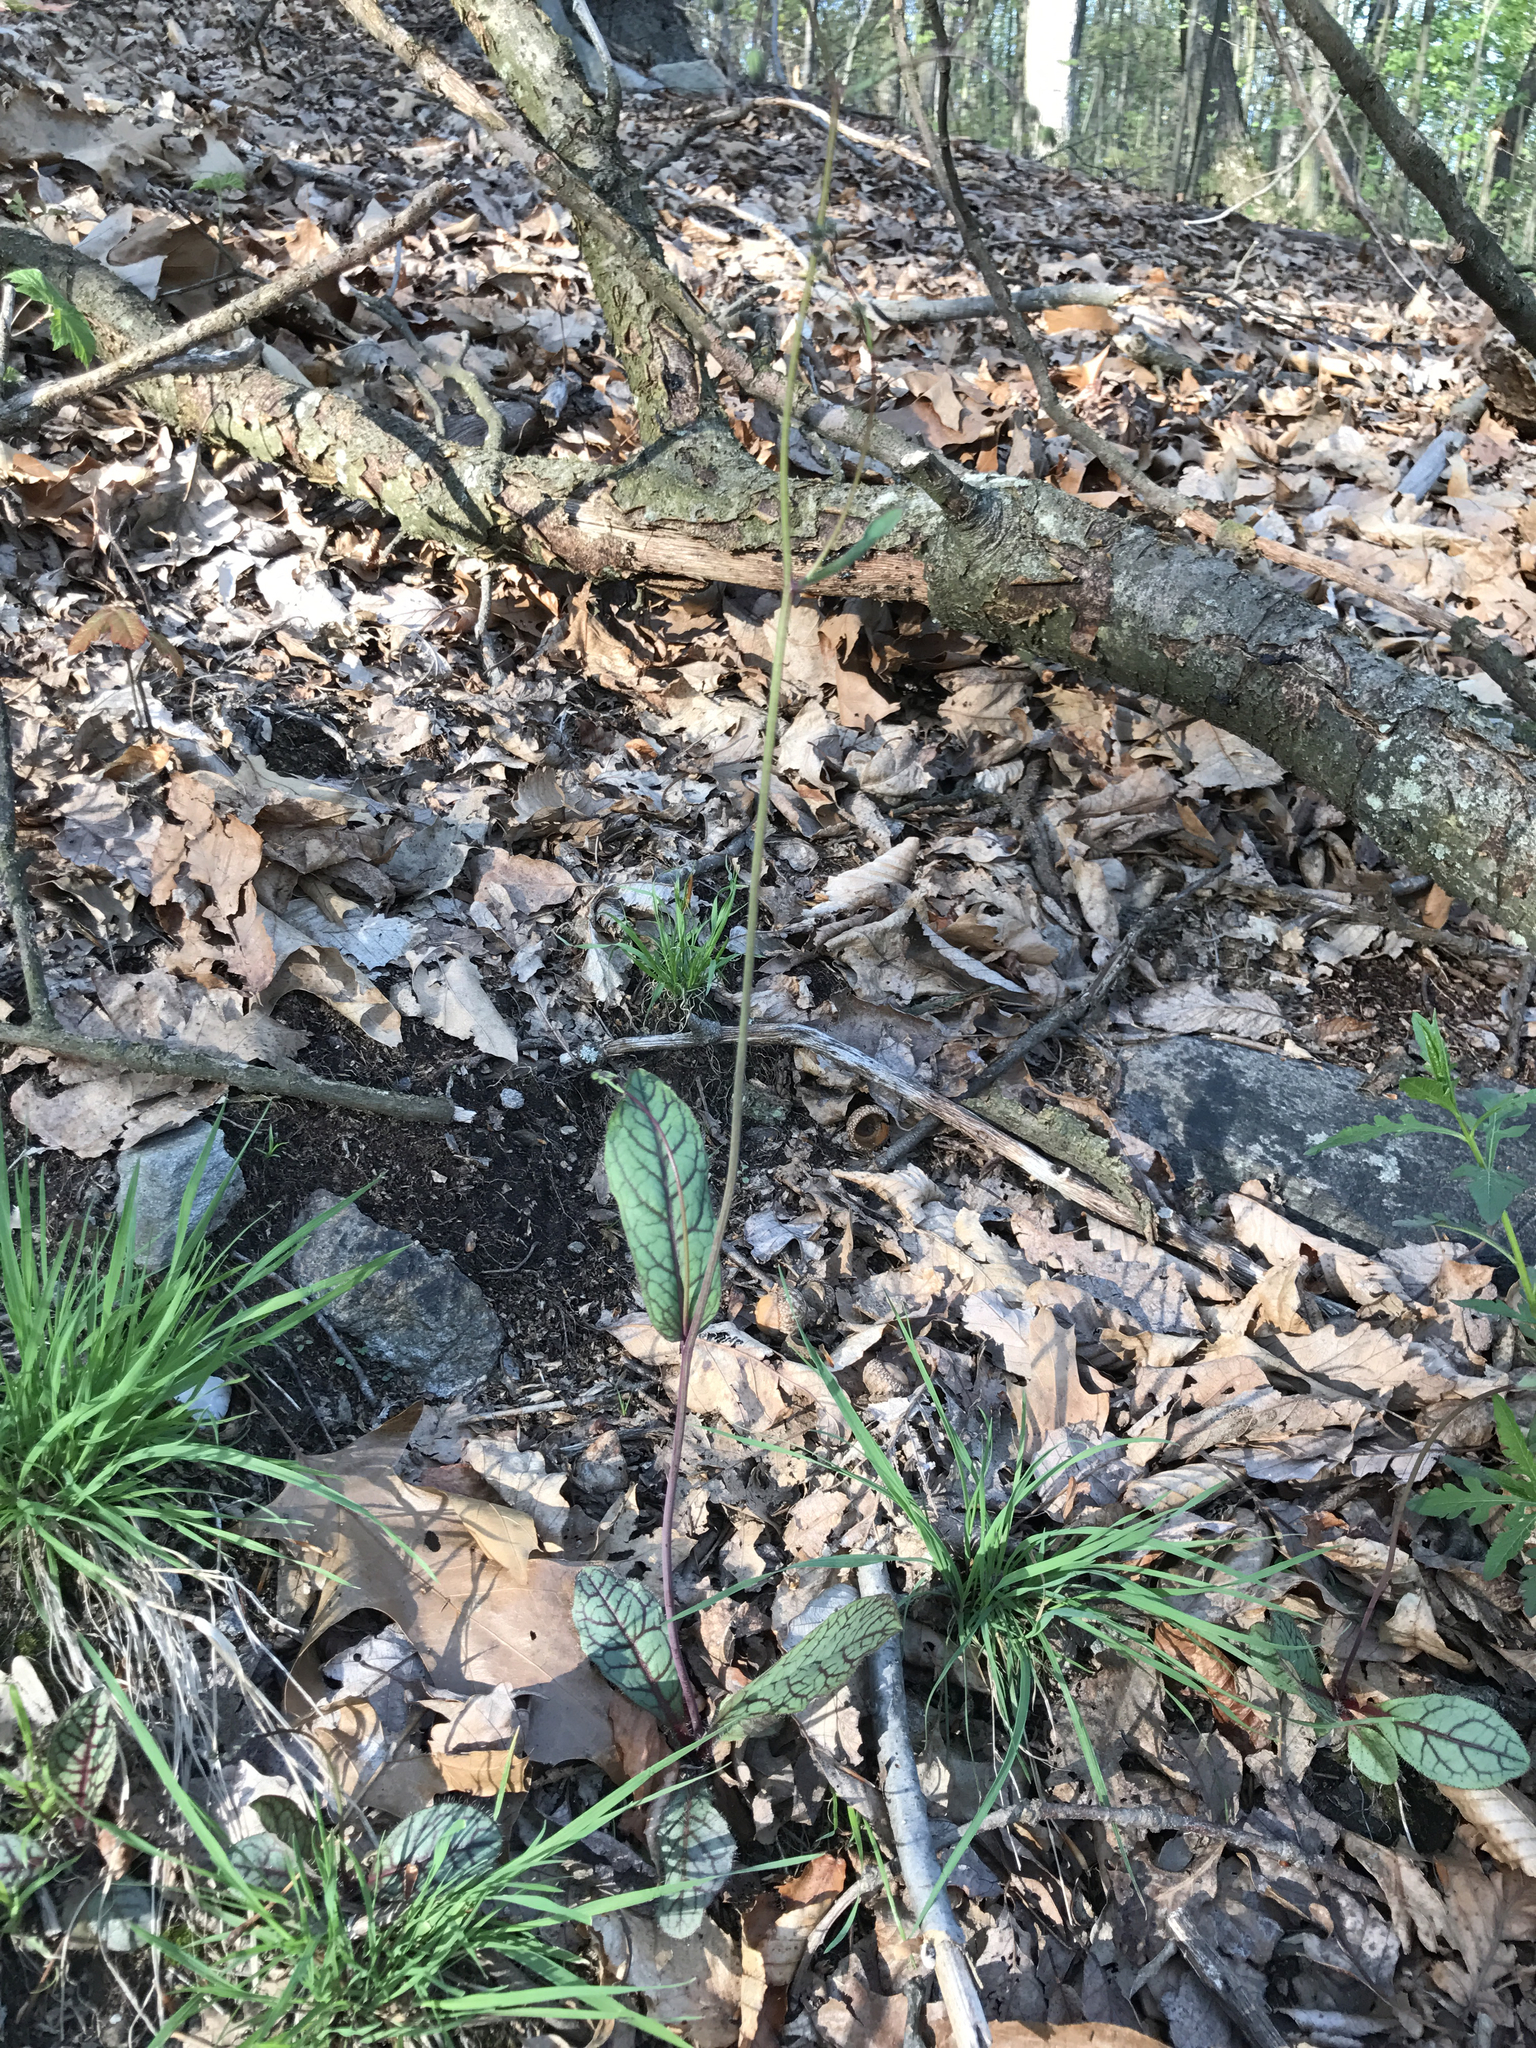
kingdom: Plantae
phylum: Tracheophyta
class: Magnoliopsida
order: Asterales
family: Asteraceae
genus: Hieracium
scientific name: Hieracium venosum
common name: Rattlesnake hawkweed
